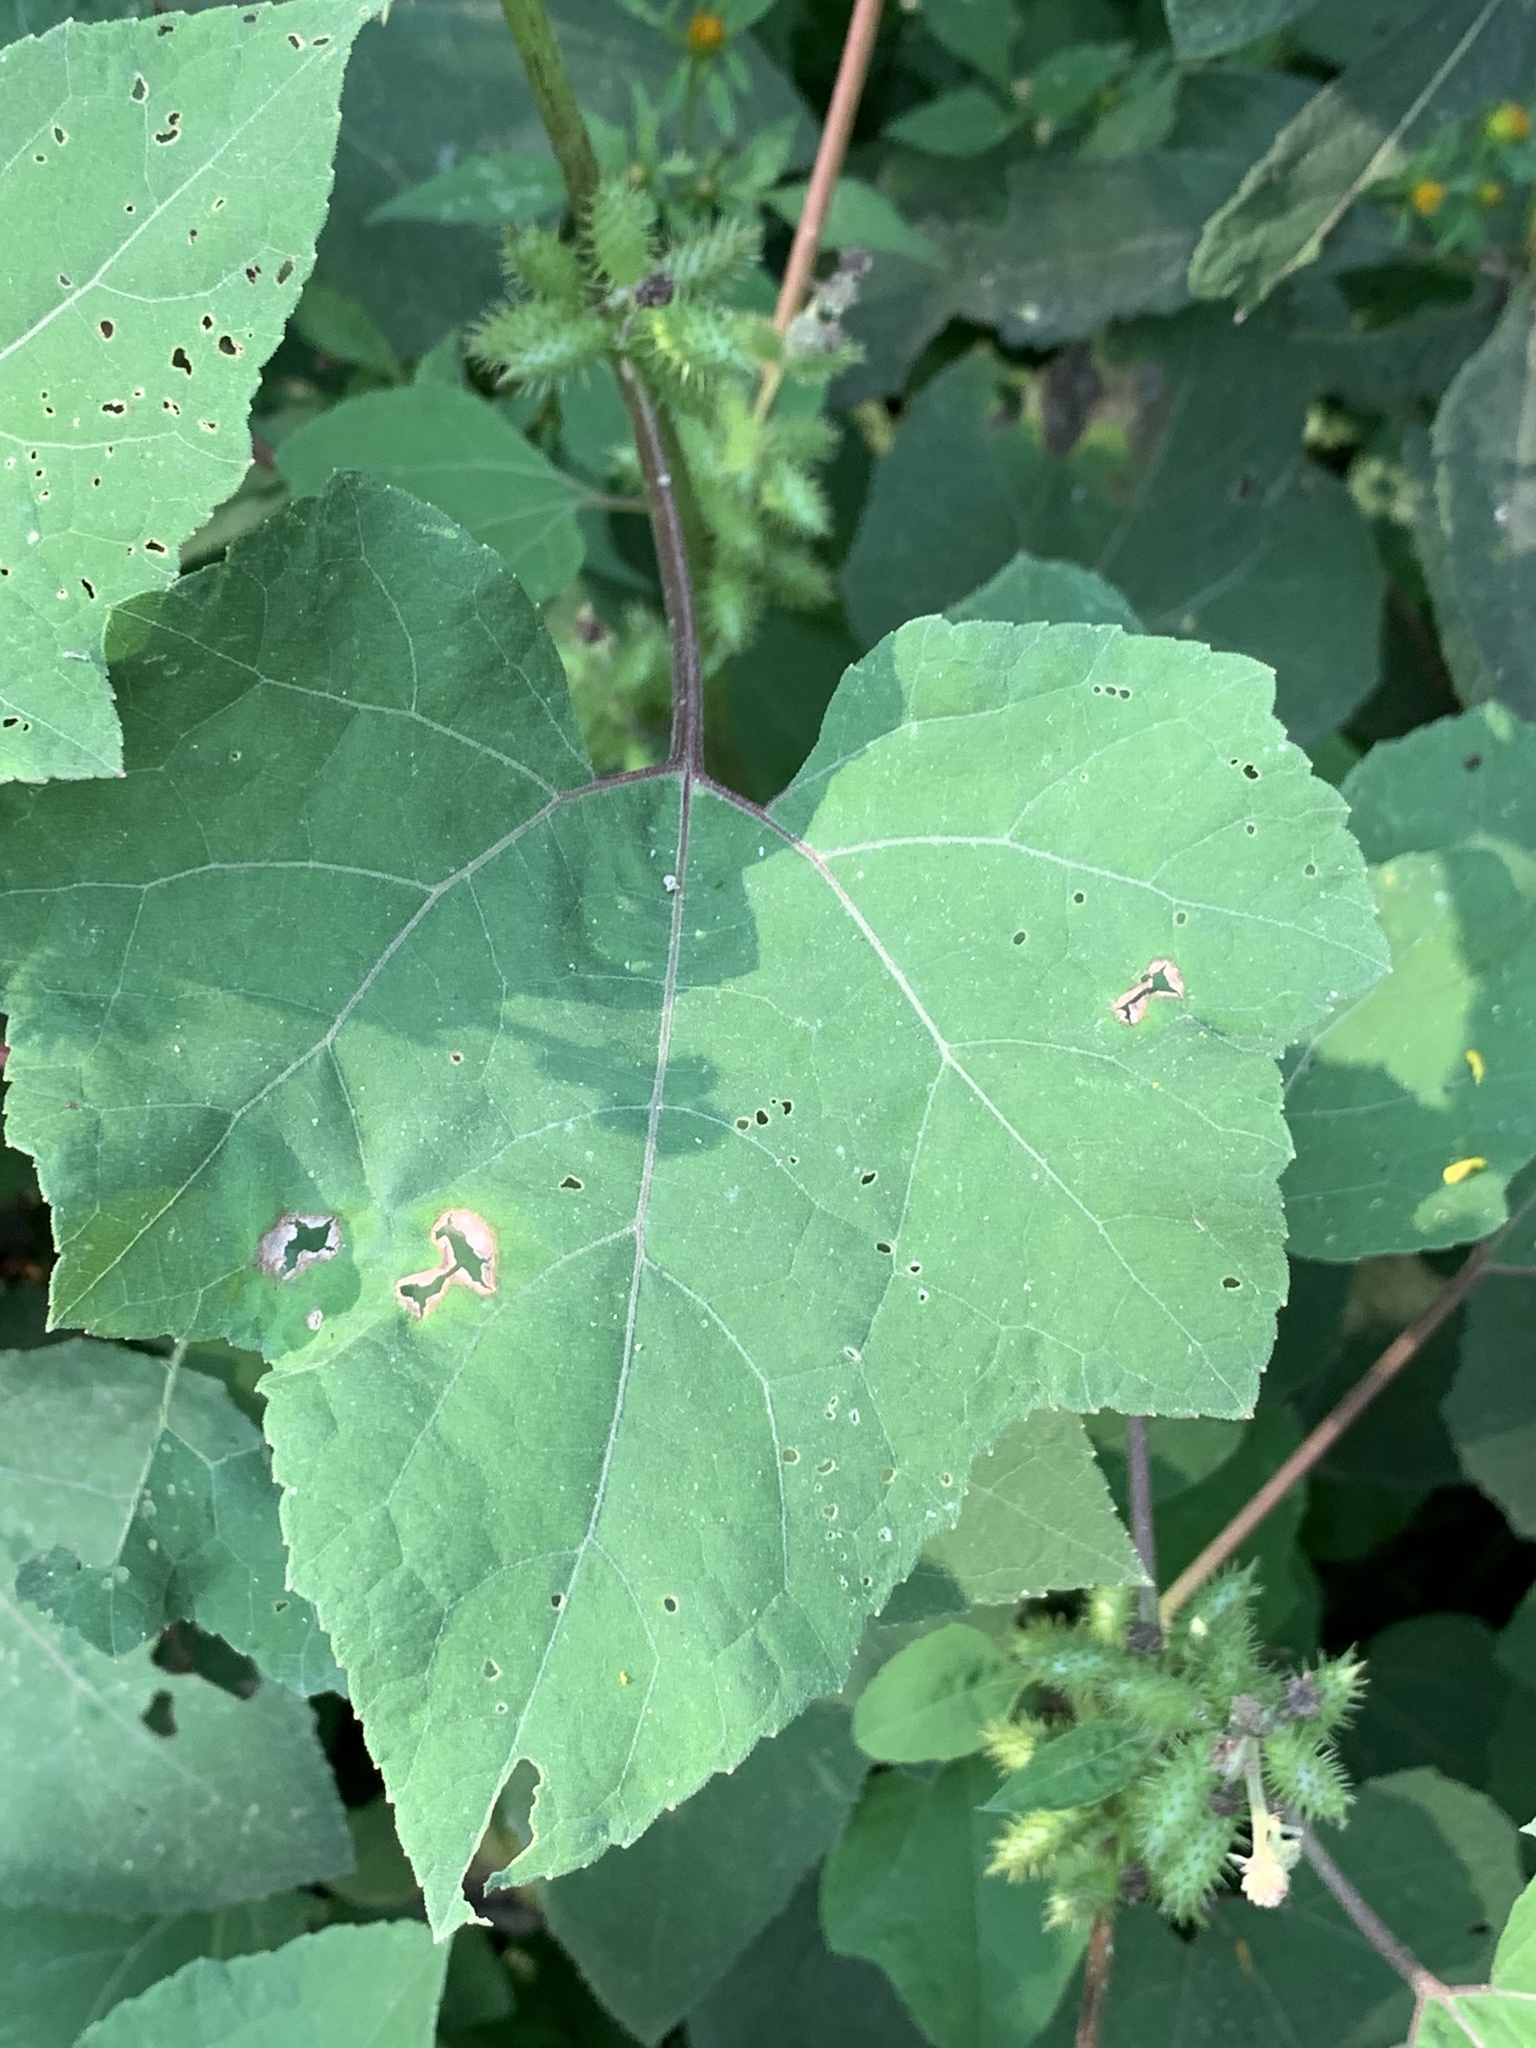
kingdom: Plantae
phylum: Tracheophyta
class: Magnoliopsida
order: Asterales
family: Asteraceae
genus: Xanthium
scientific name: Xanthium strumarium
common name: Rough cocklebur
